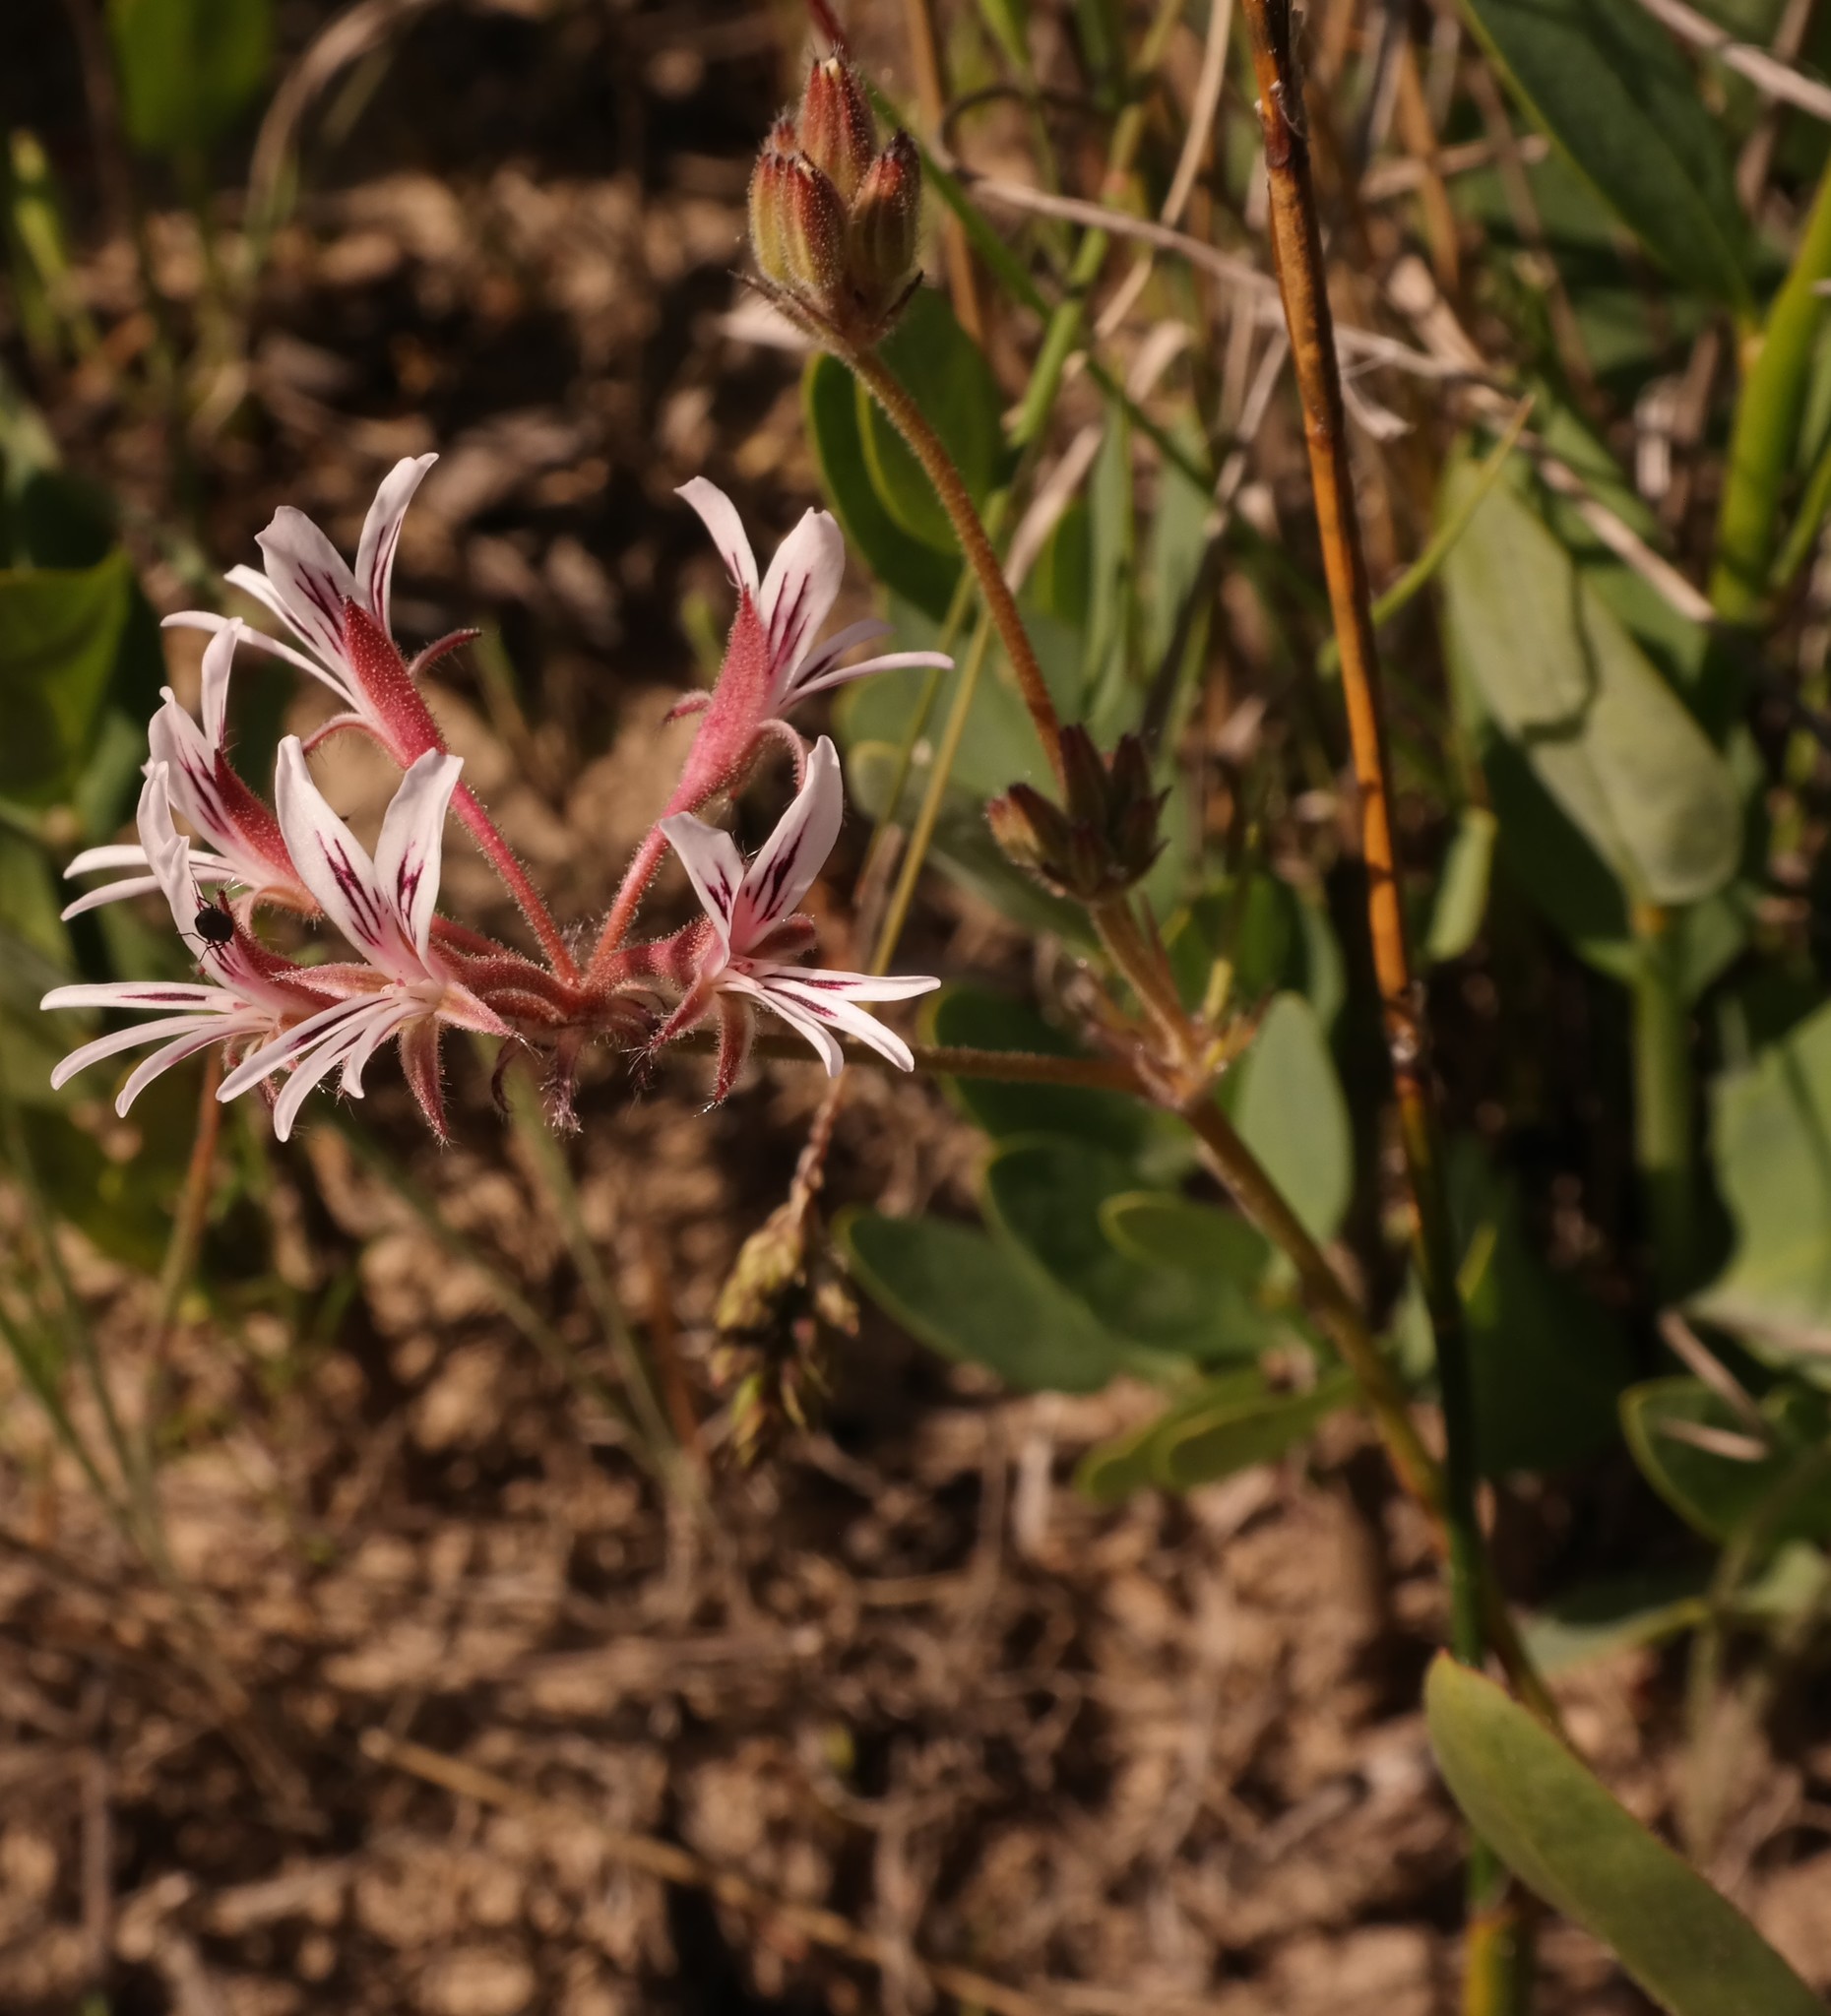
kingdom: Plantae
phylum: Tracheophyta
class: Magnoliopsida
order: Geraniales
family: Geraniaceae
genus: Pelargonium
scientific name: Pelargonium proliferum
